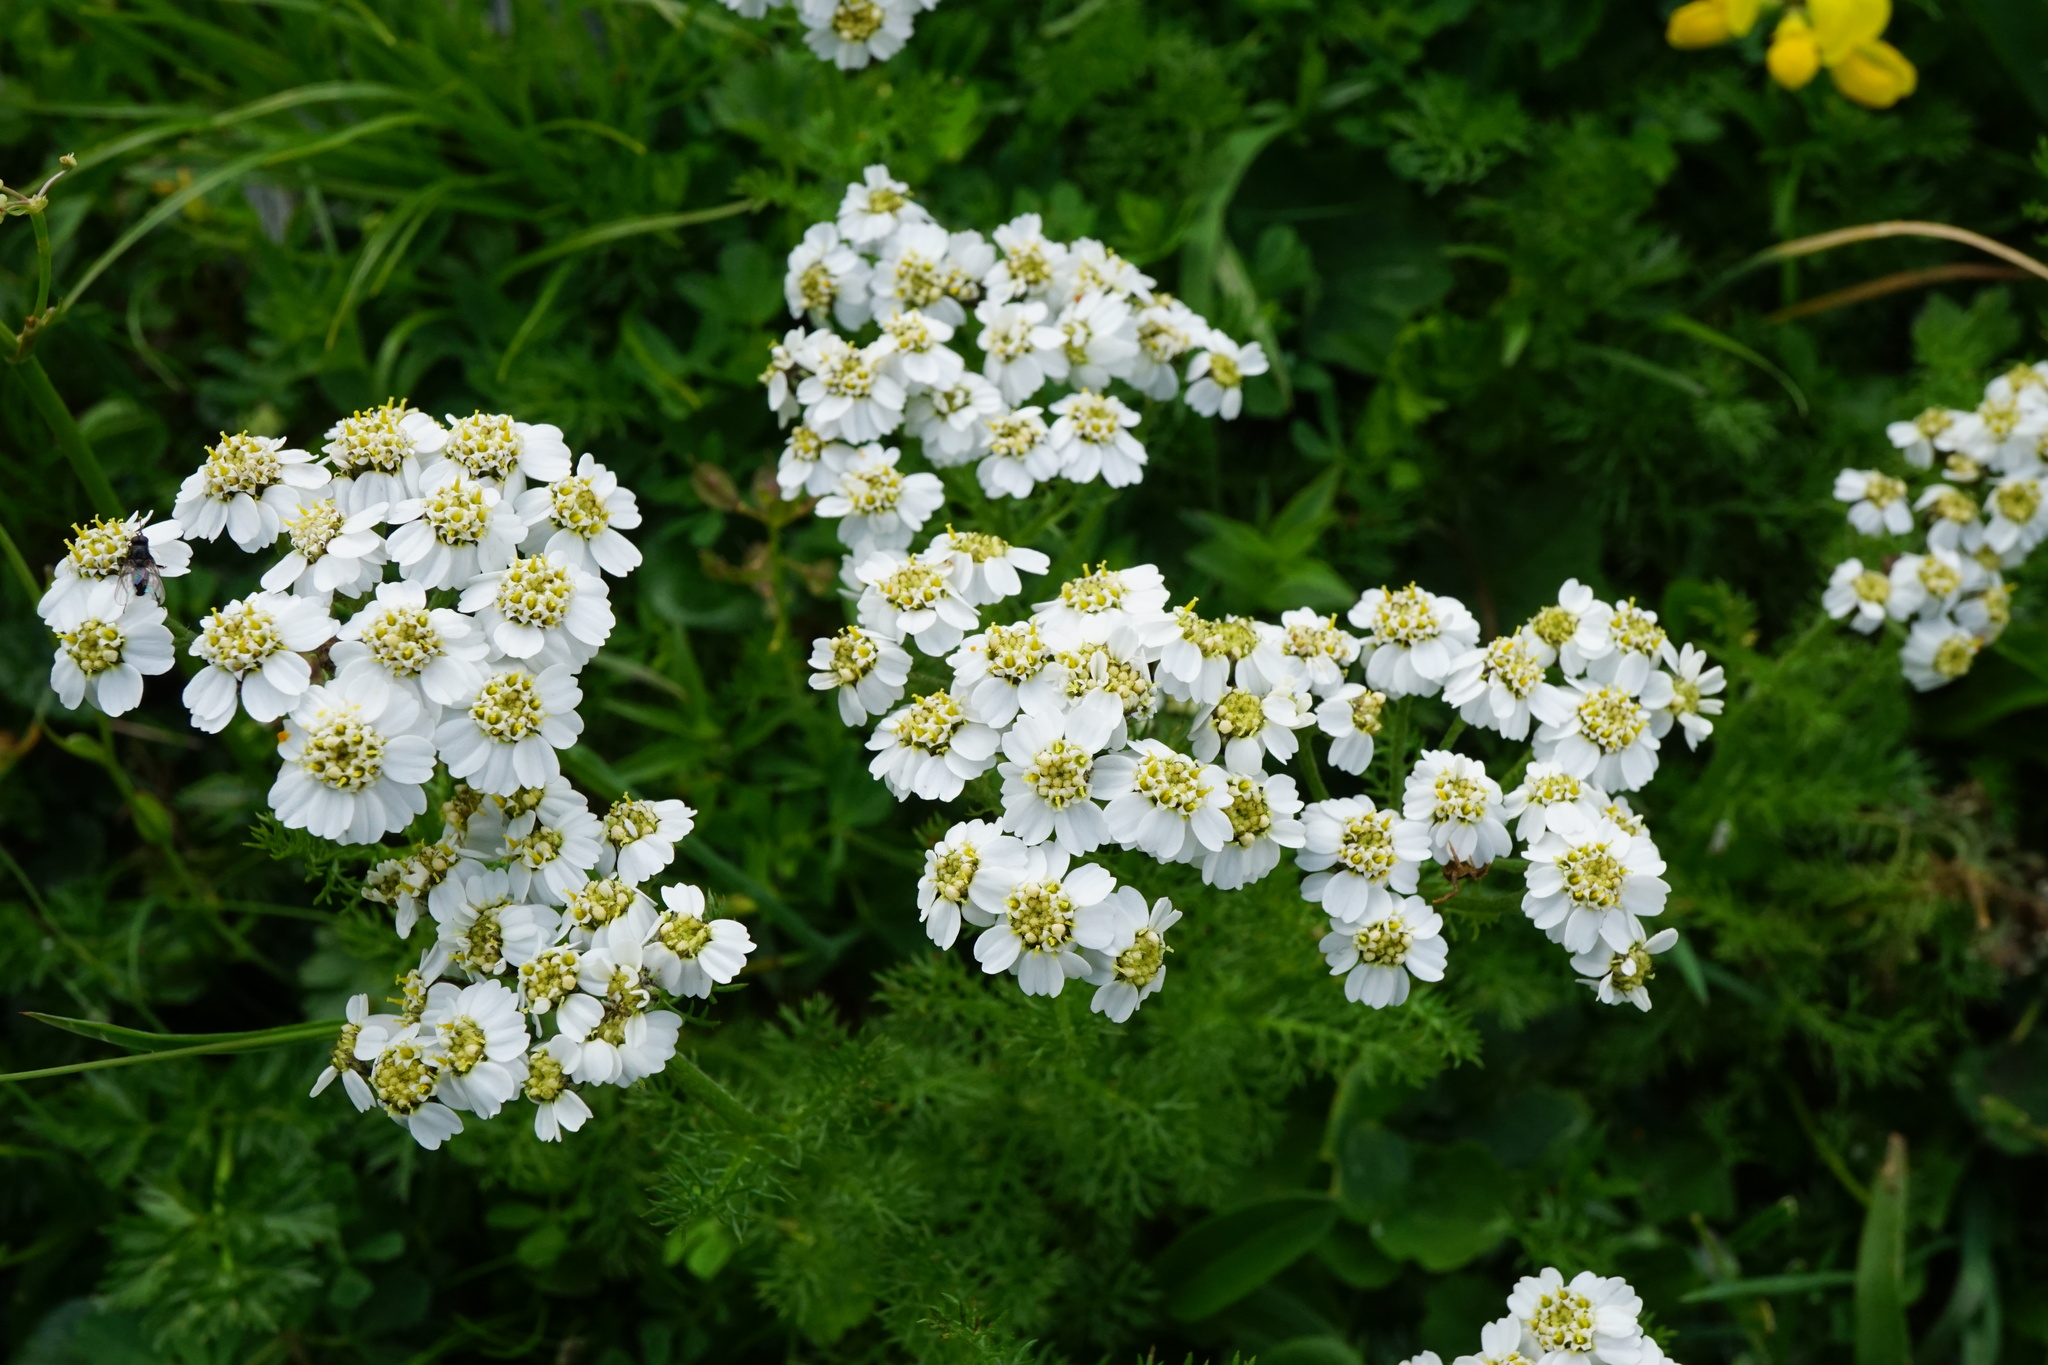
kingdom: Plantae
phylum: Tracheophyta
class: Magnoliopsida
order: Asterales
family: Asteraceae
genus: Achillea
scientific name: Achillea clusiana
